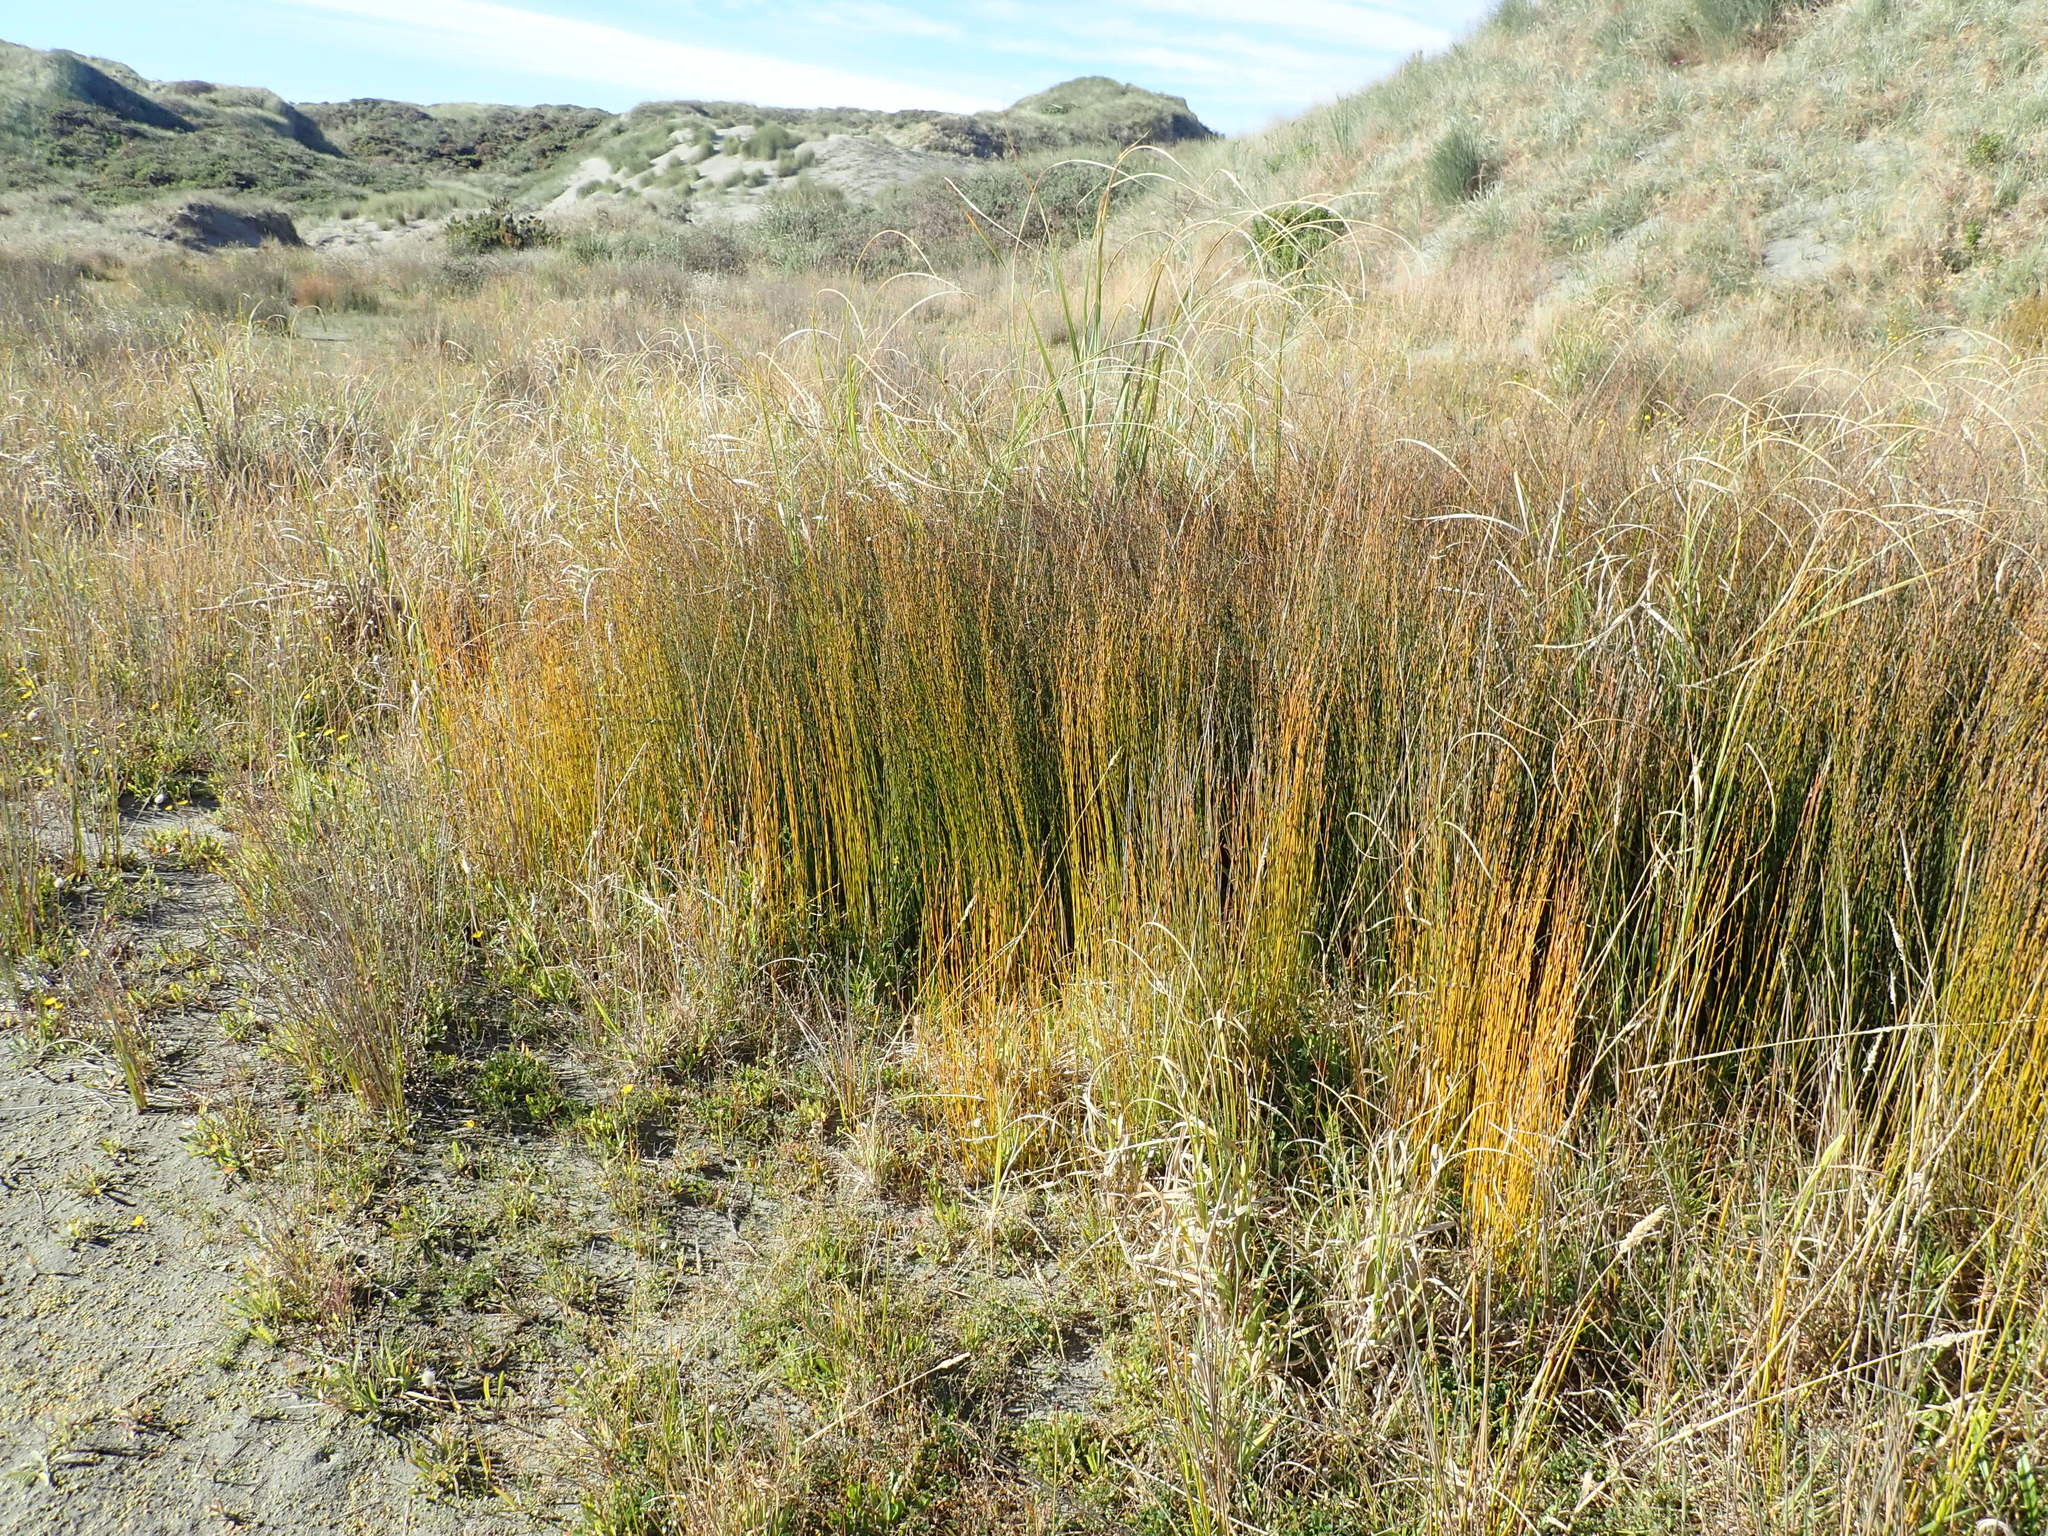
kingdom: Plantae
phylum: Tracheophyta
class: Liliopsida
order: Poales
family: Restionaceae
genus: Apodasmia
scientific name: Apodasmia similis
